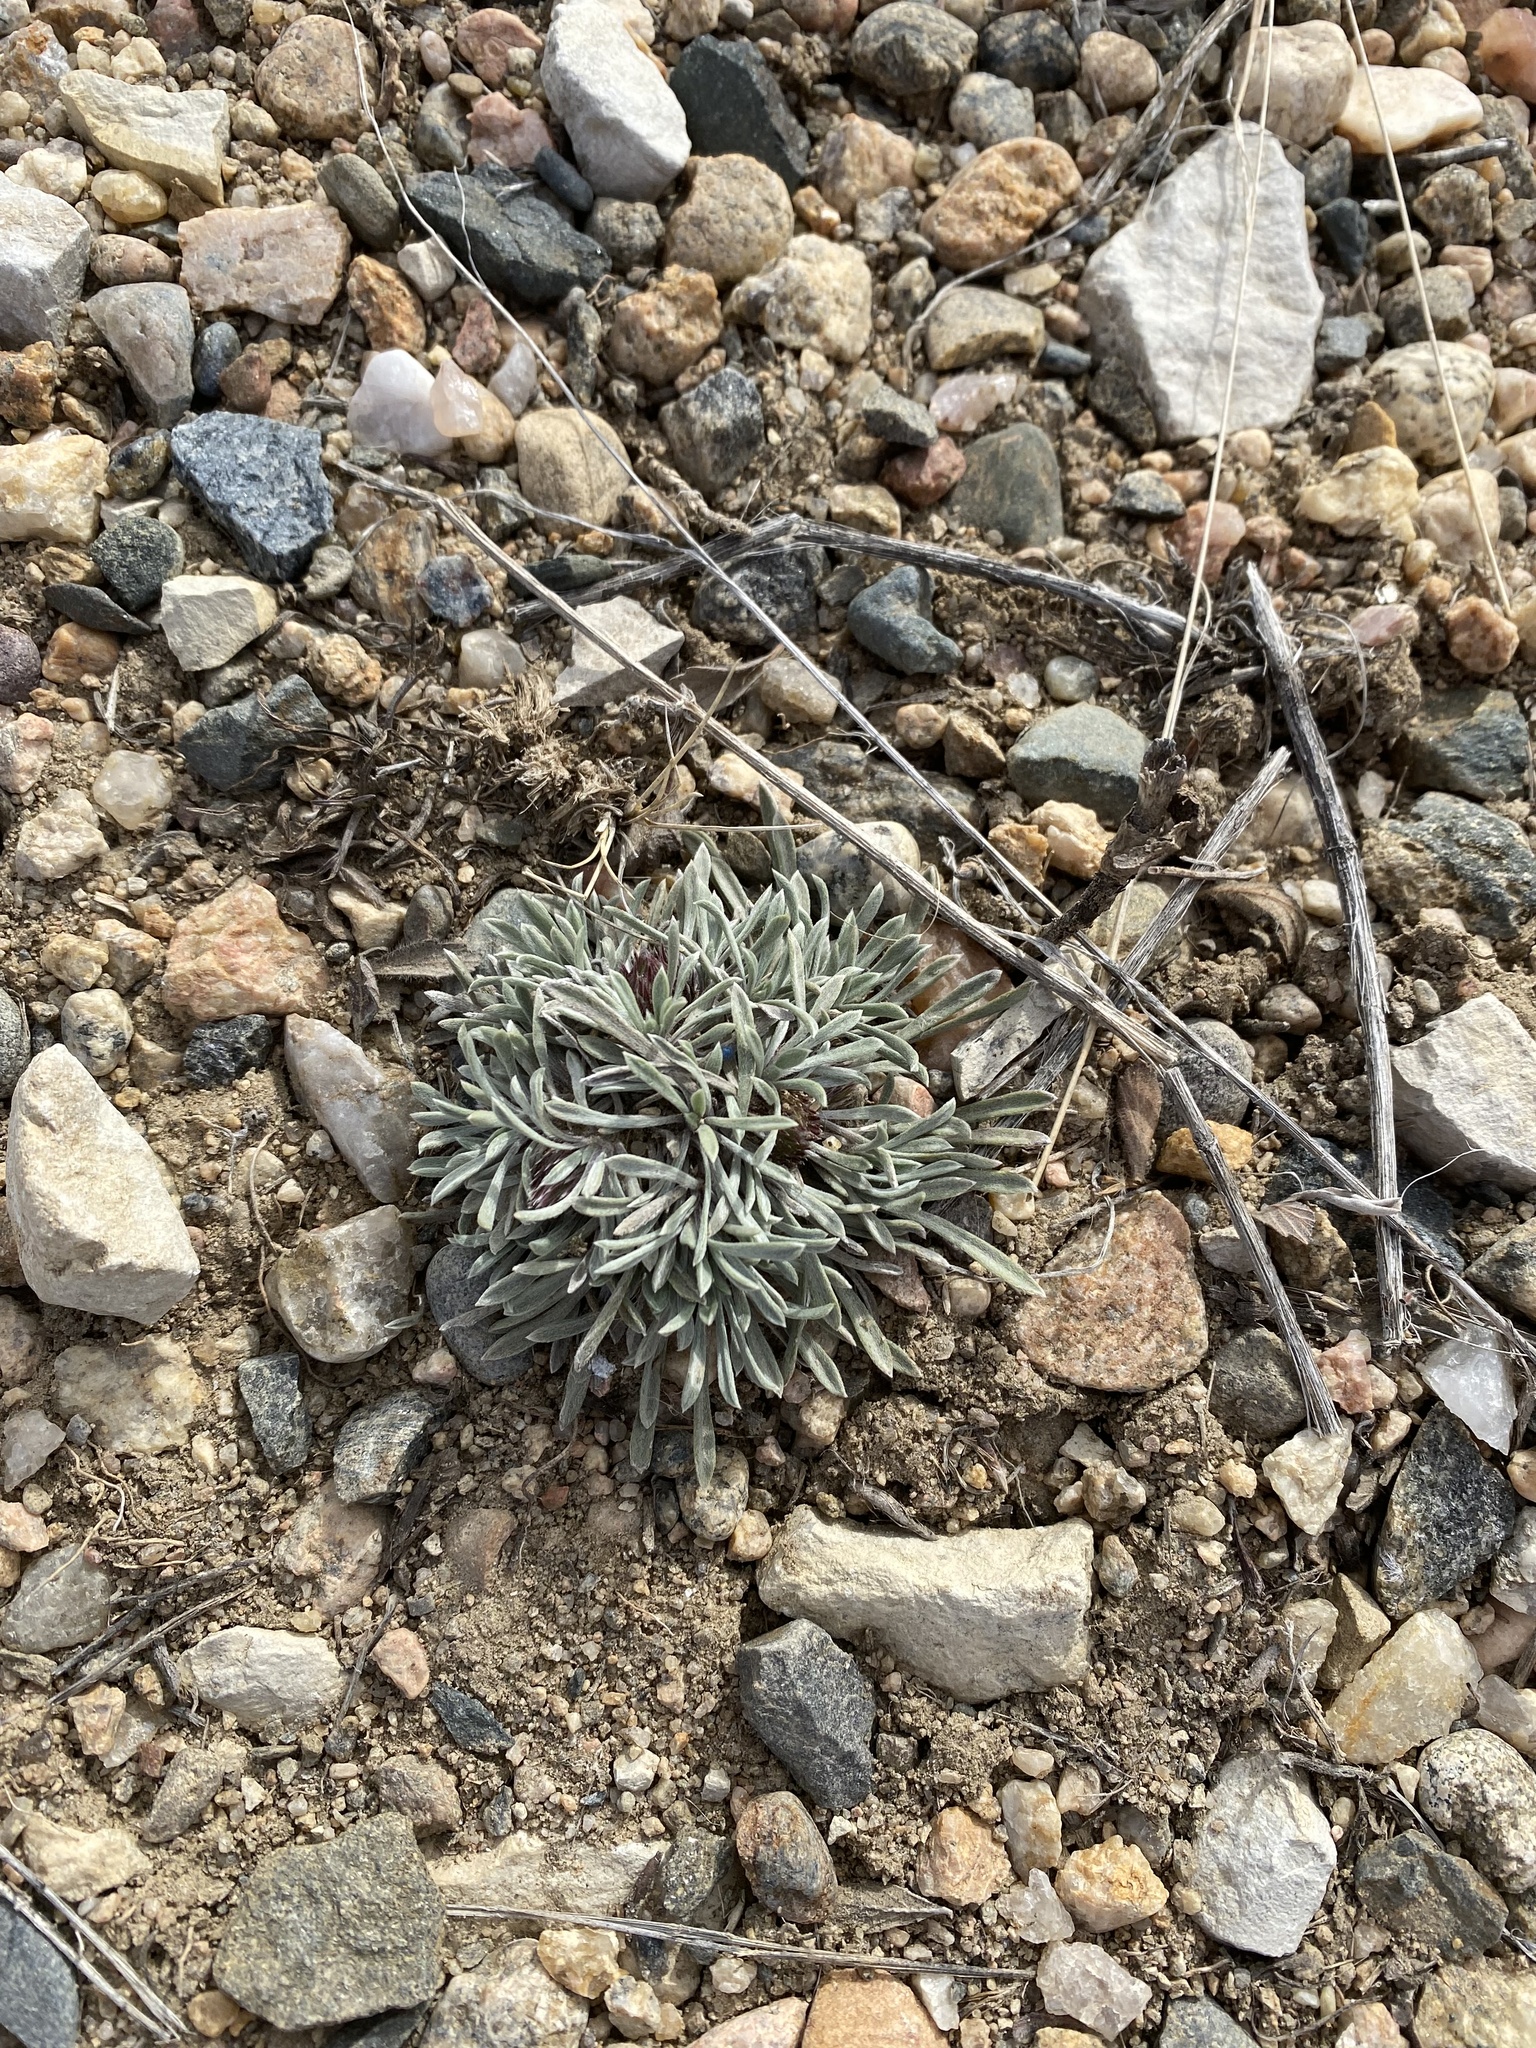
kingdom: Plantae
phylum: Tracheophyta
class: Magnoliopsida
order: Asterales
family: Asteraceae
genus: Townsendia
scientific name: Townsendia hookeri
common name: Hooker's townsend daisy
